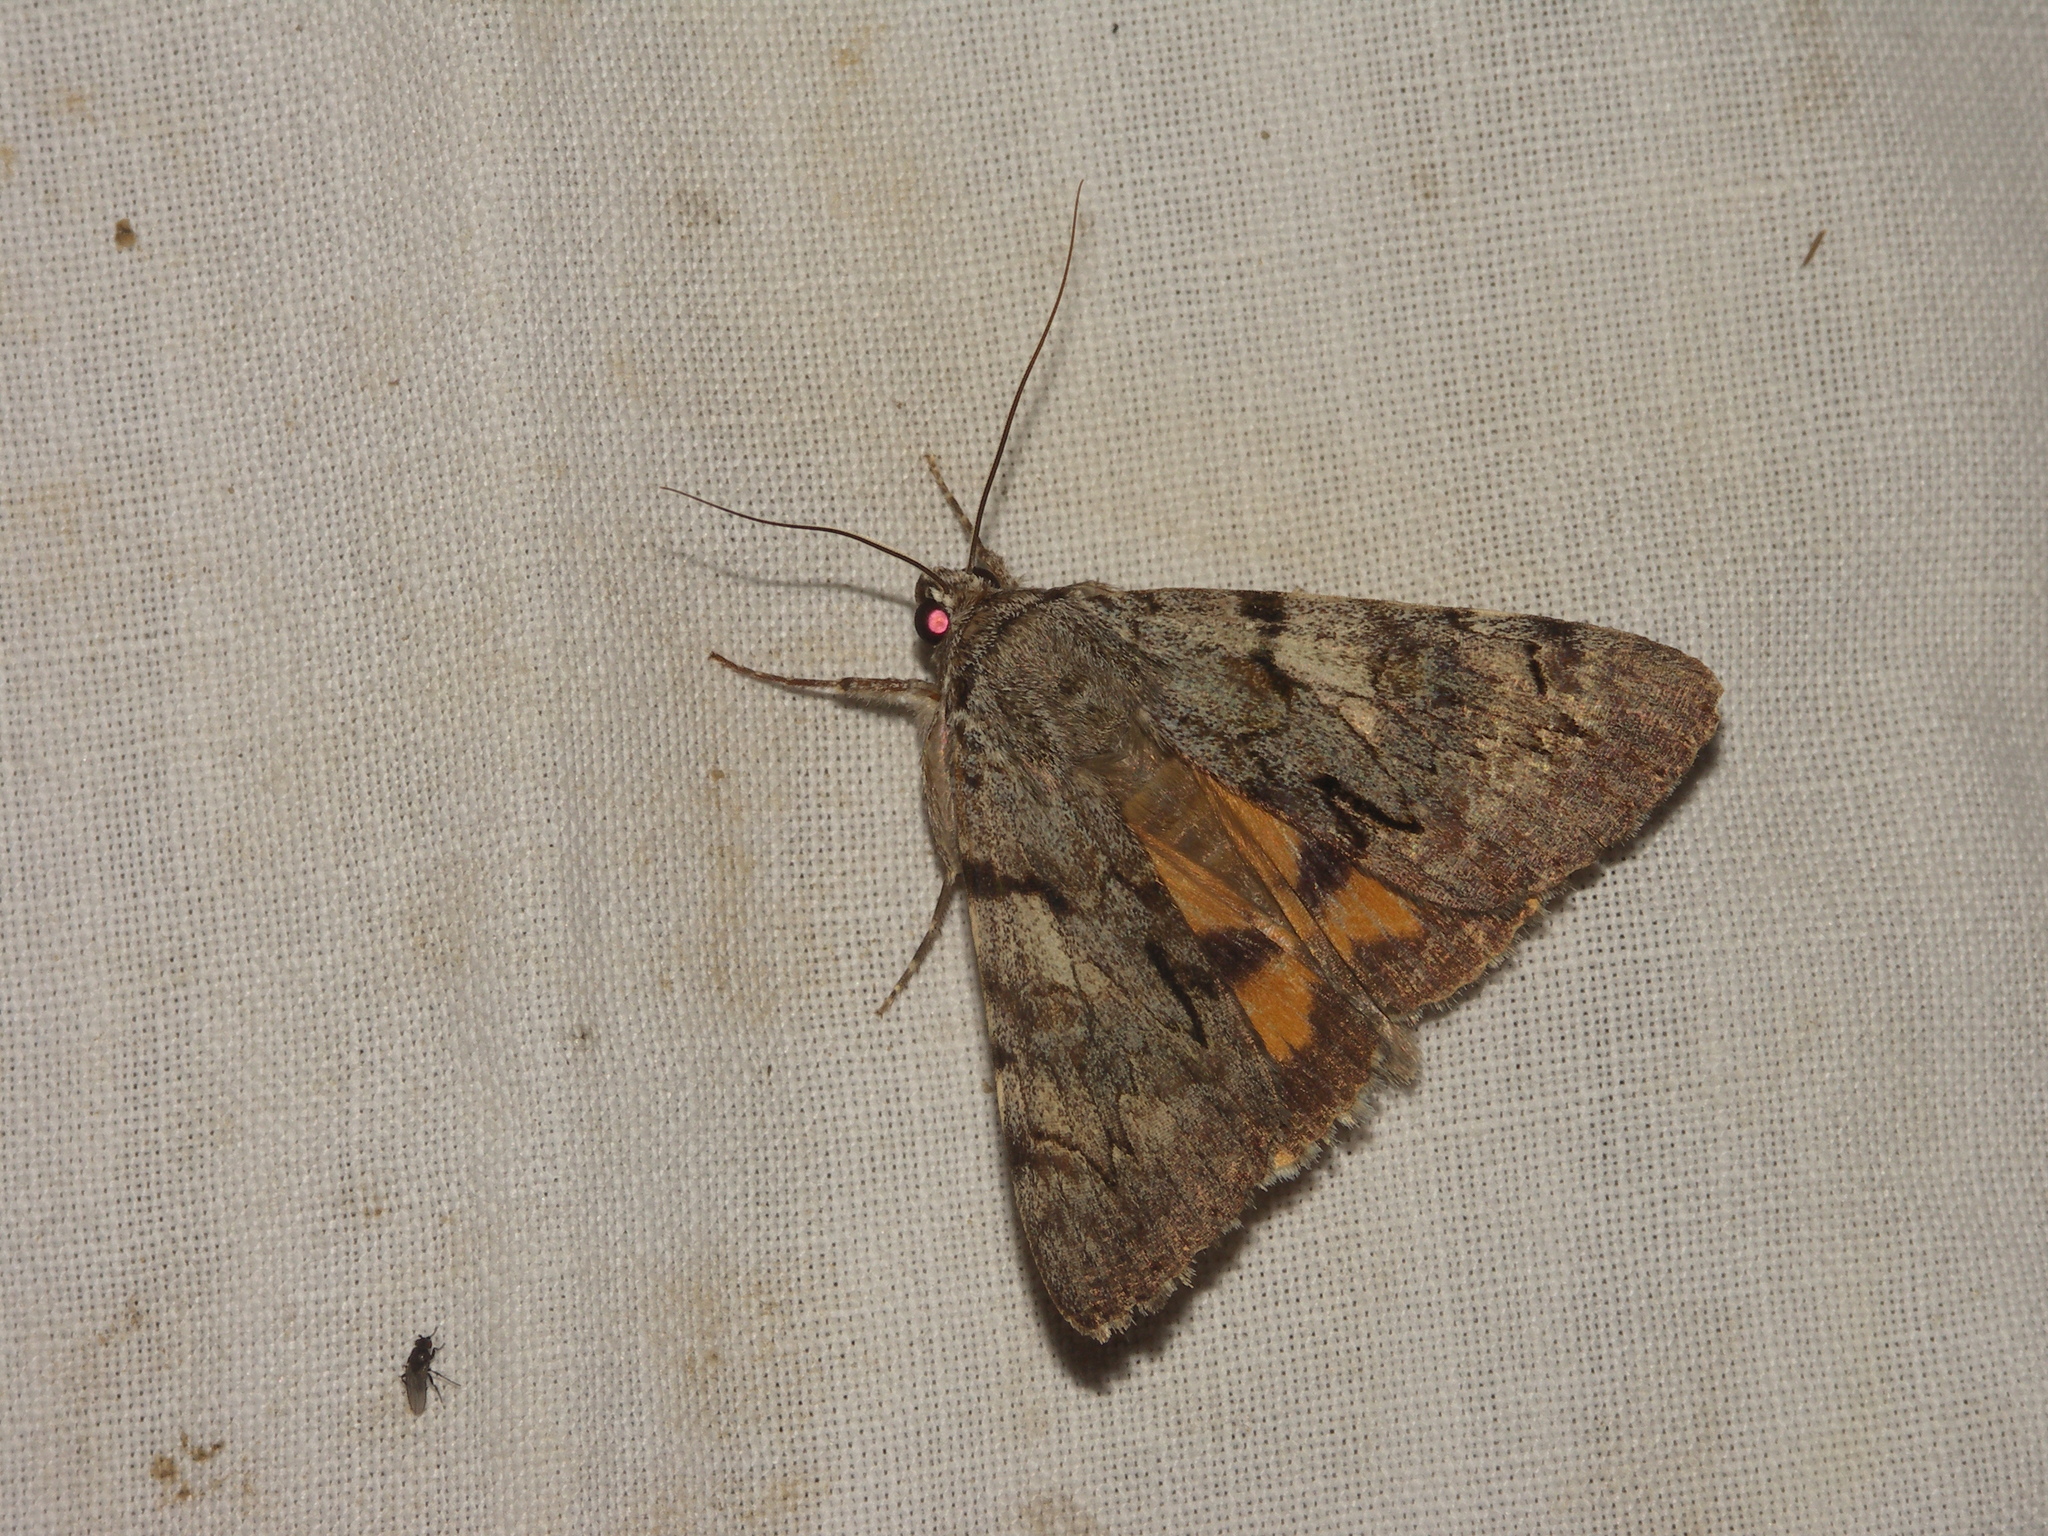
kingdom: Animalia
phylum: Arthropoda
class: Insecta
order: Lepidoptera
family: Erebidae
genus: Catocala
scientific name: Catocala conversa
